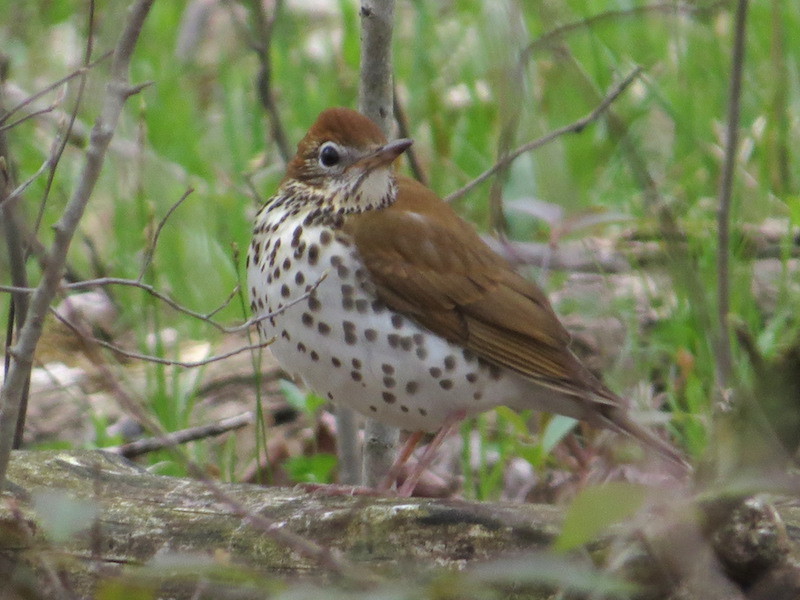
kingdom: Animalia
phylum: Chordata
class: Aves
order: Passeriformes
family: Turdidae
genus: Hylocichla
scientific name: Hylocichla mustelina
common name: Wood thrush
